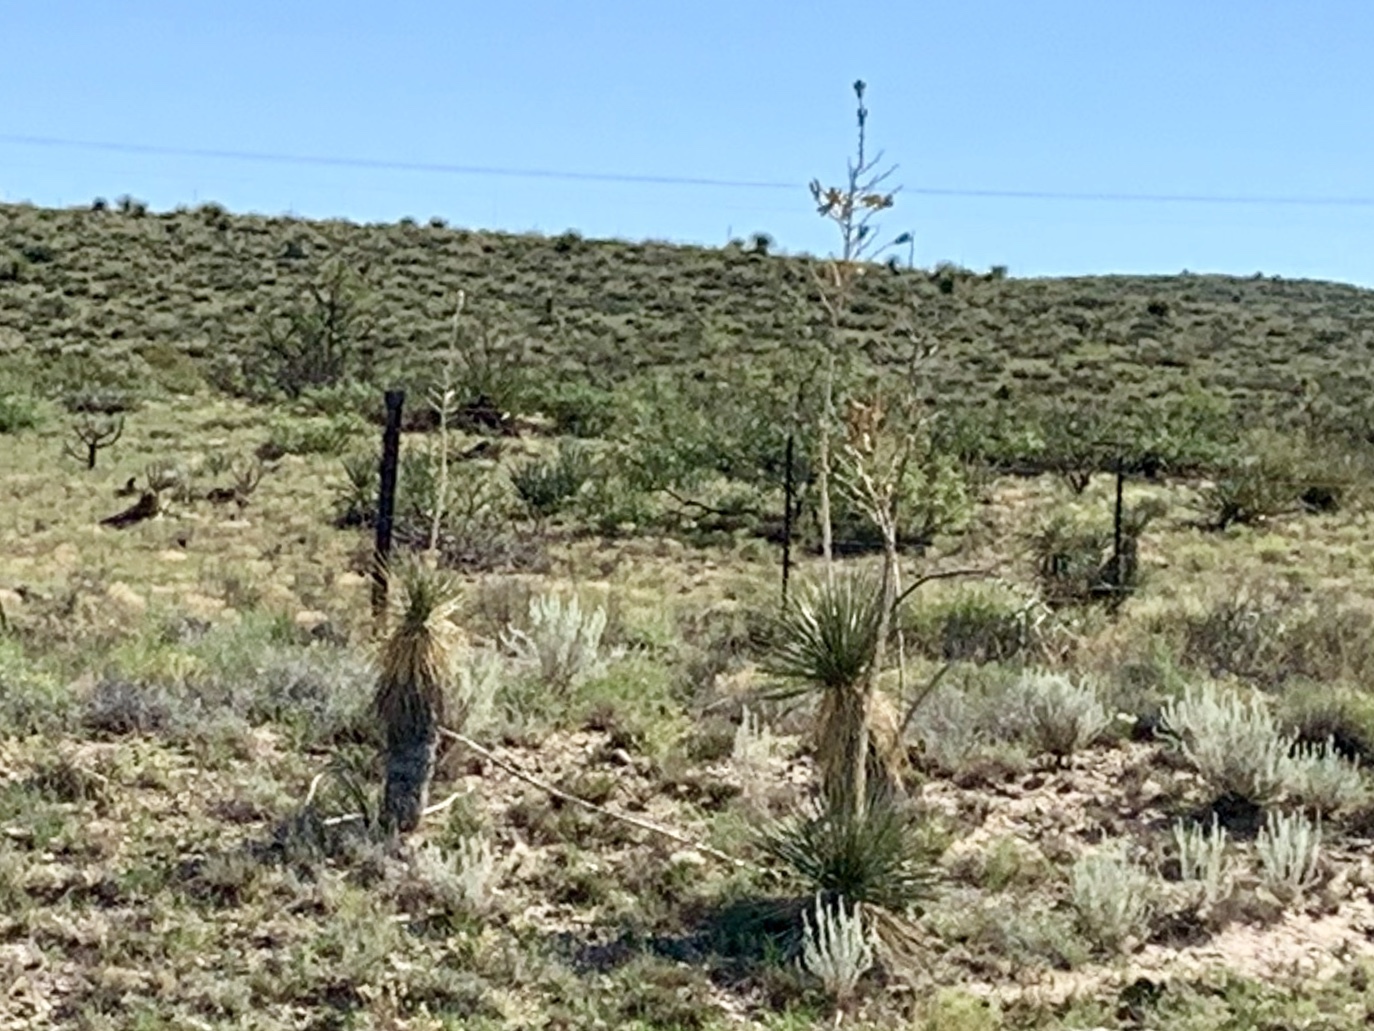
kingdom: Plantae
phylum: Tracheophyta
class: Liliopsida
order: Asparagales
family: Asparagaceae
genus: Yucca
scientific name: Yucca elata
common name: Palmella
